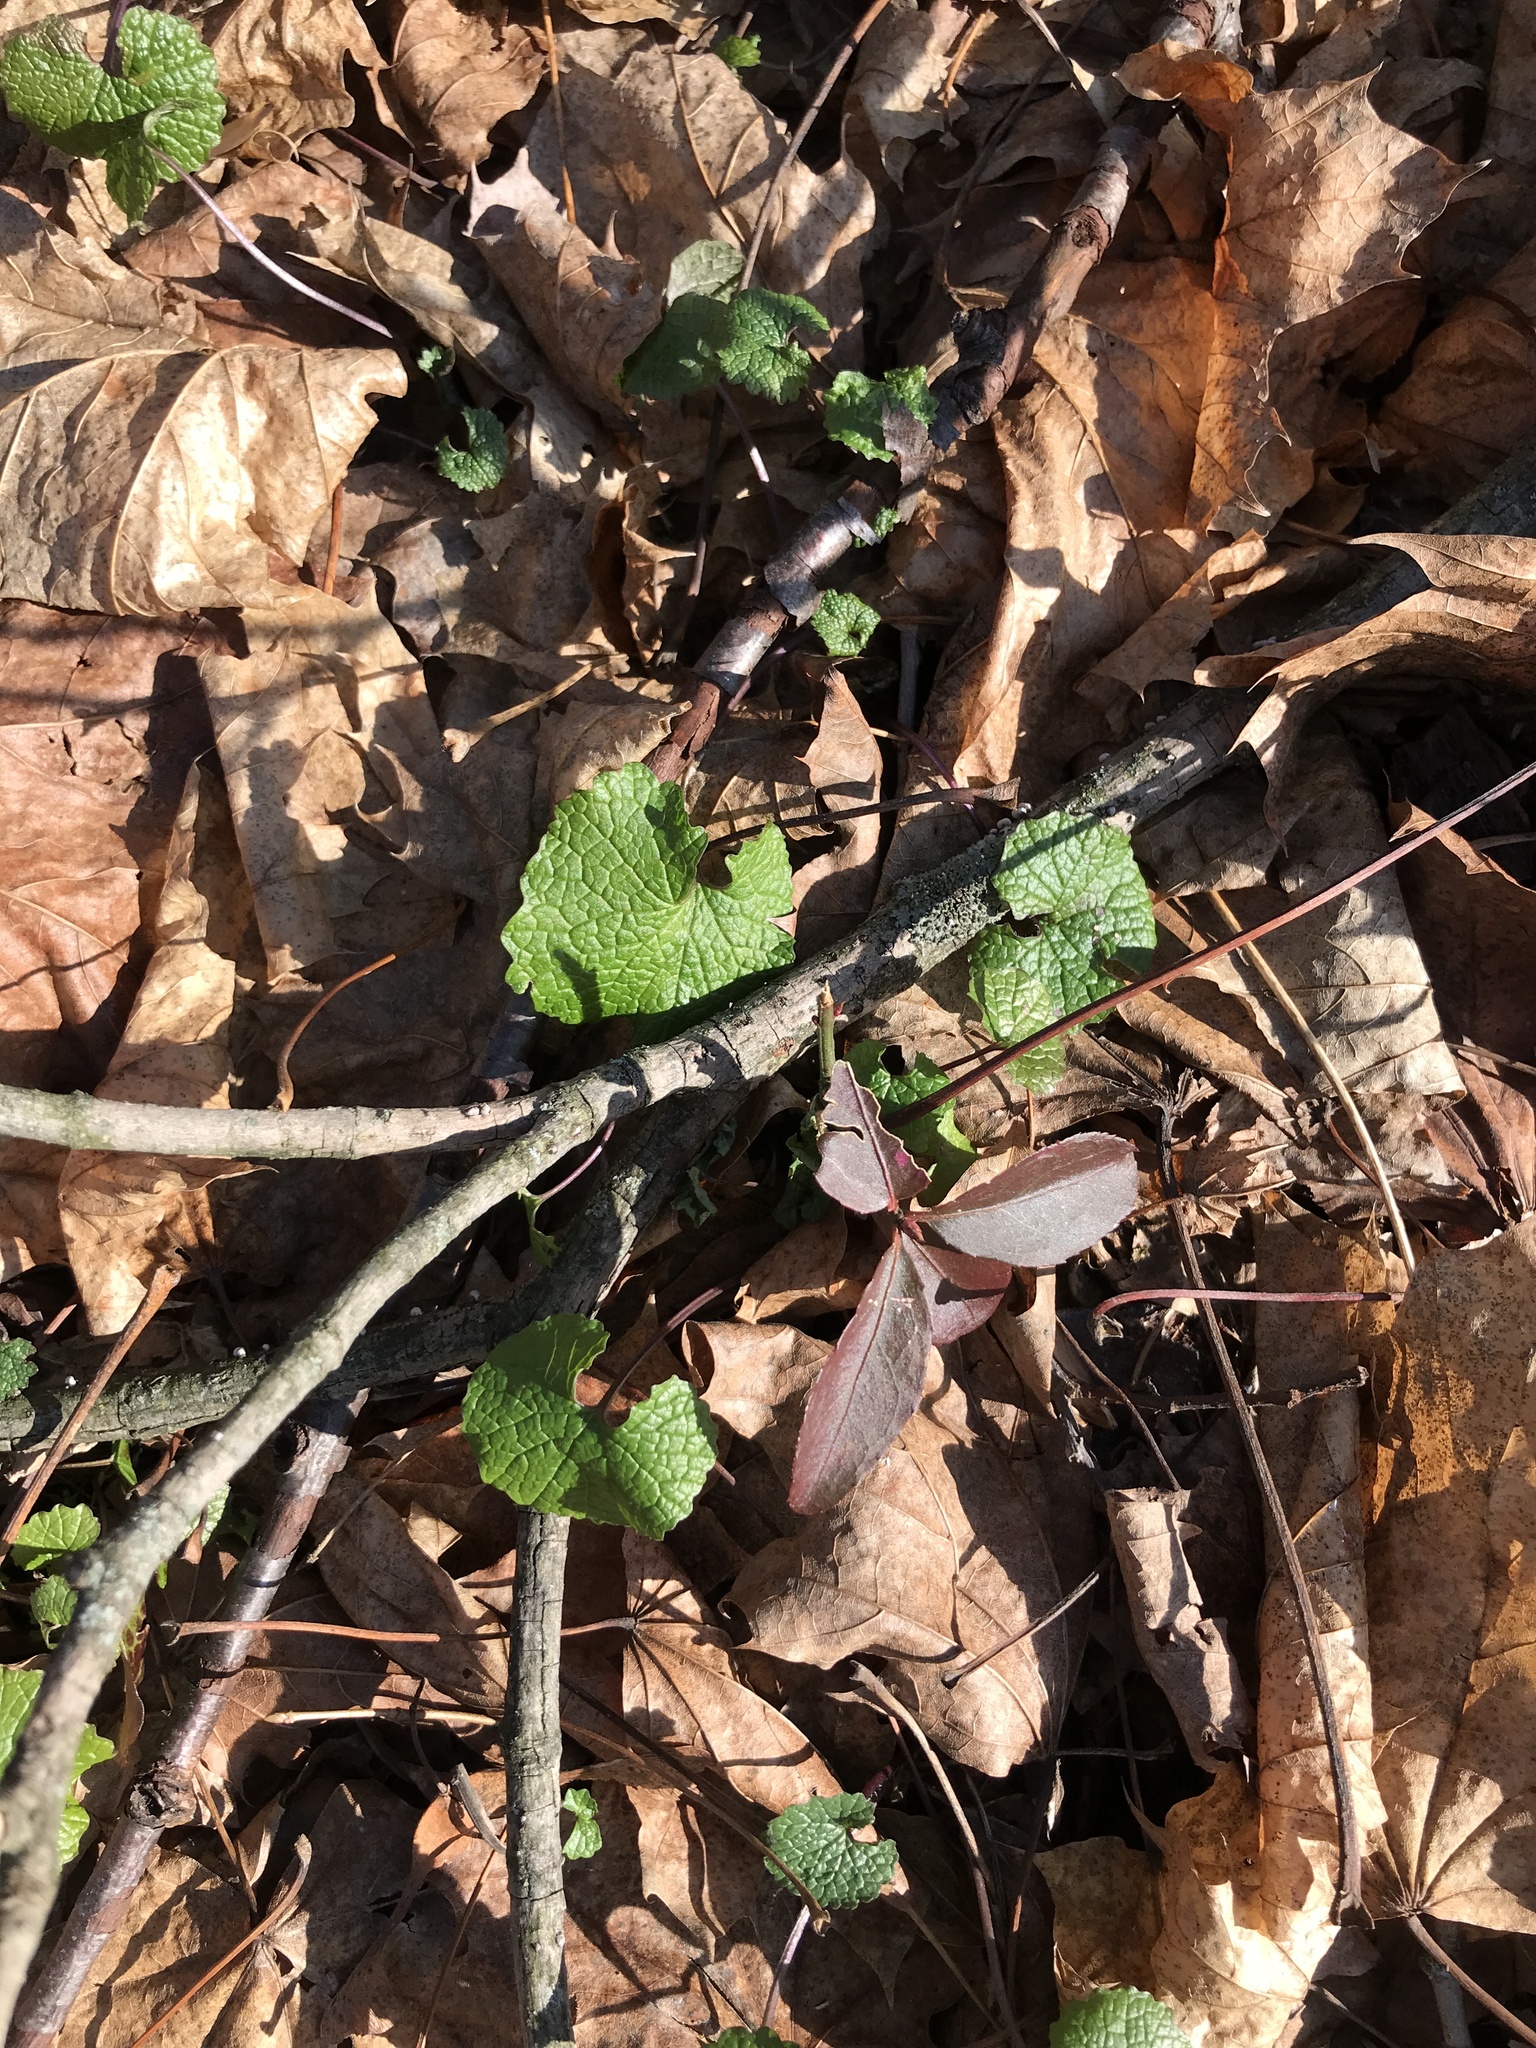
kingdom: Plantae
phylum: Tracheophyta
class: Magnoliopsida
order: Brassicales
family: Brassicaceae
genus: Alliaria
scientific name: Alliaria petiolata
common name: Garlic mustard
